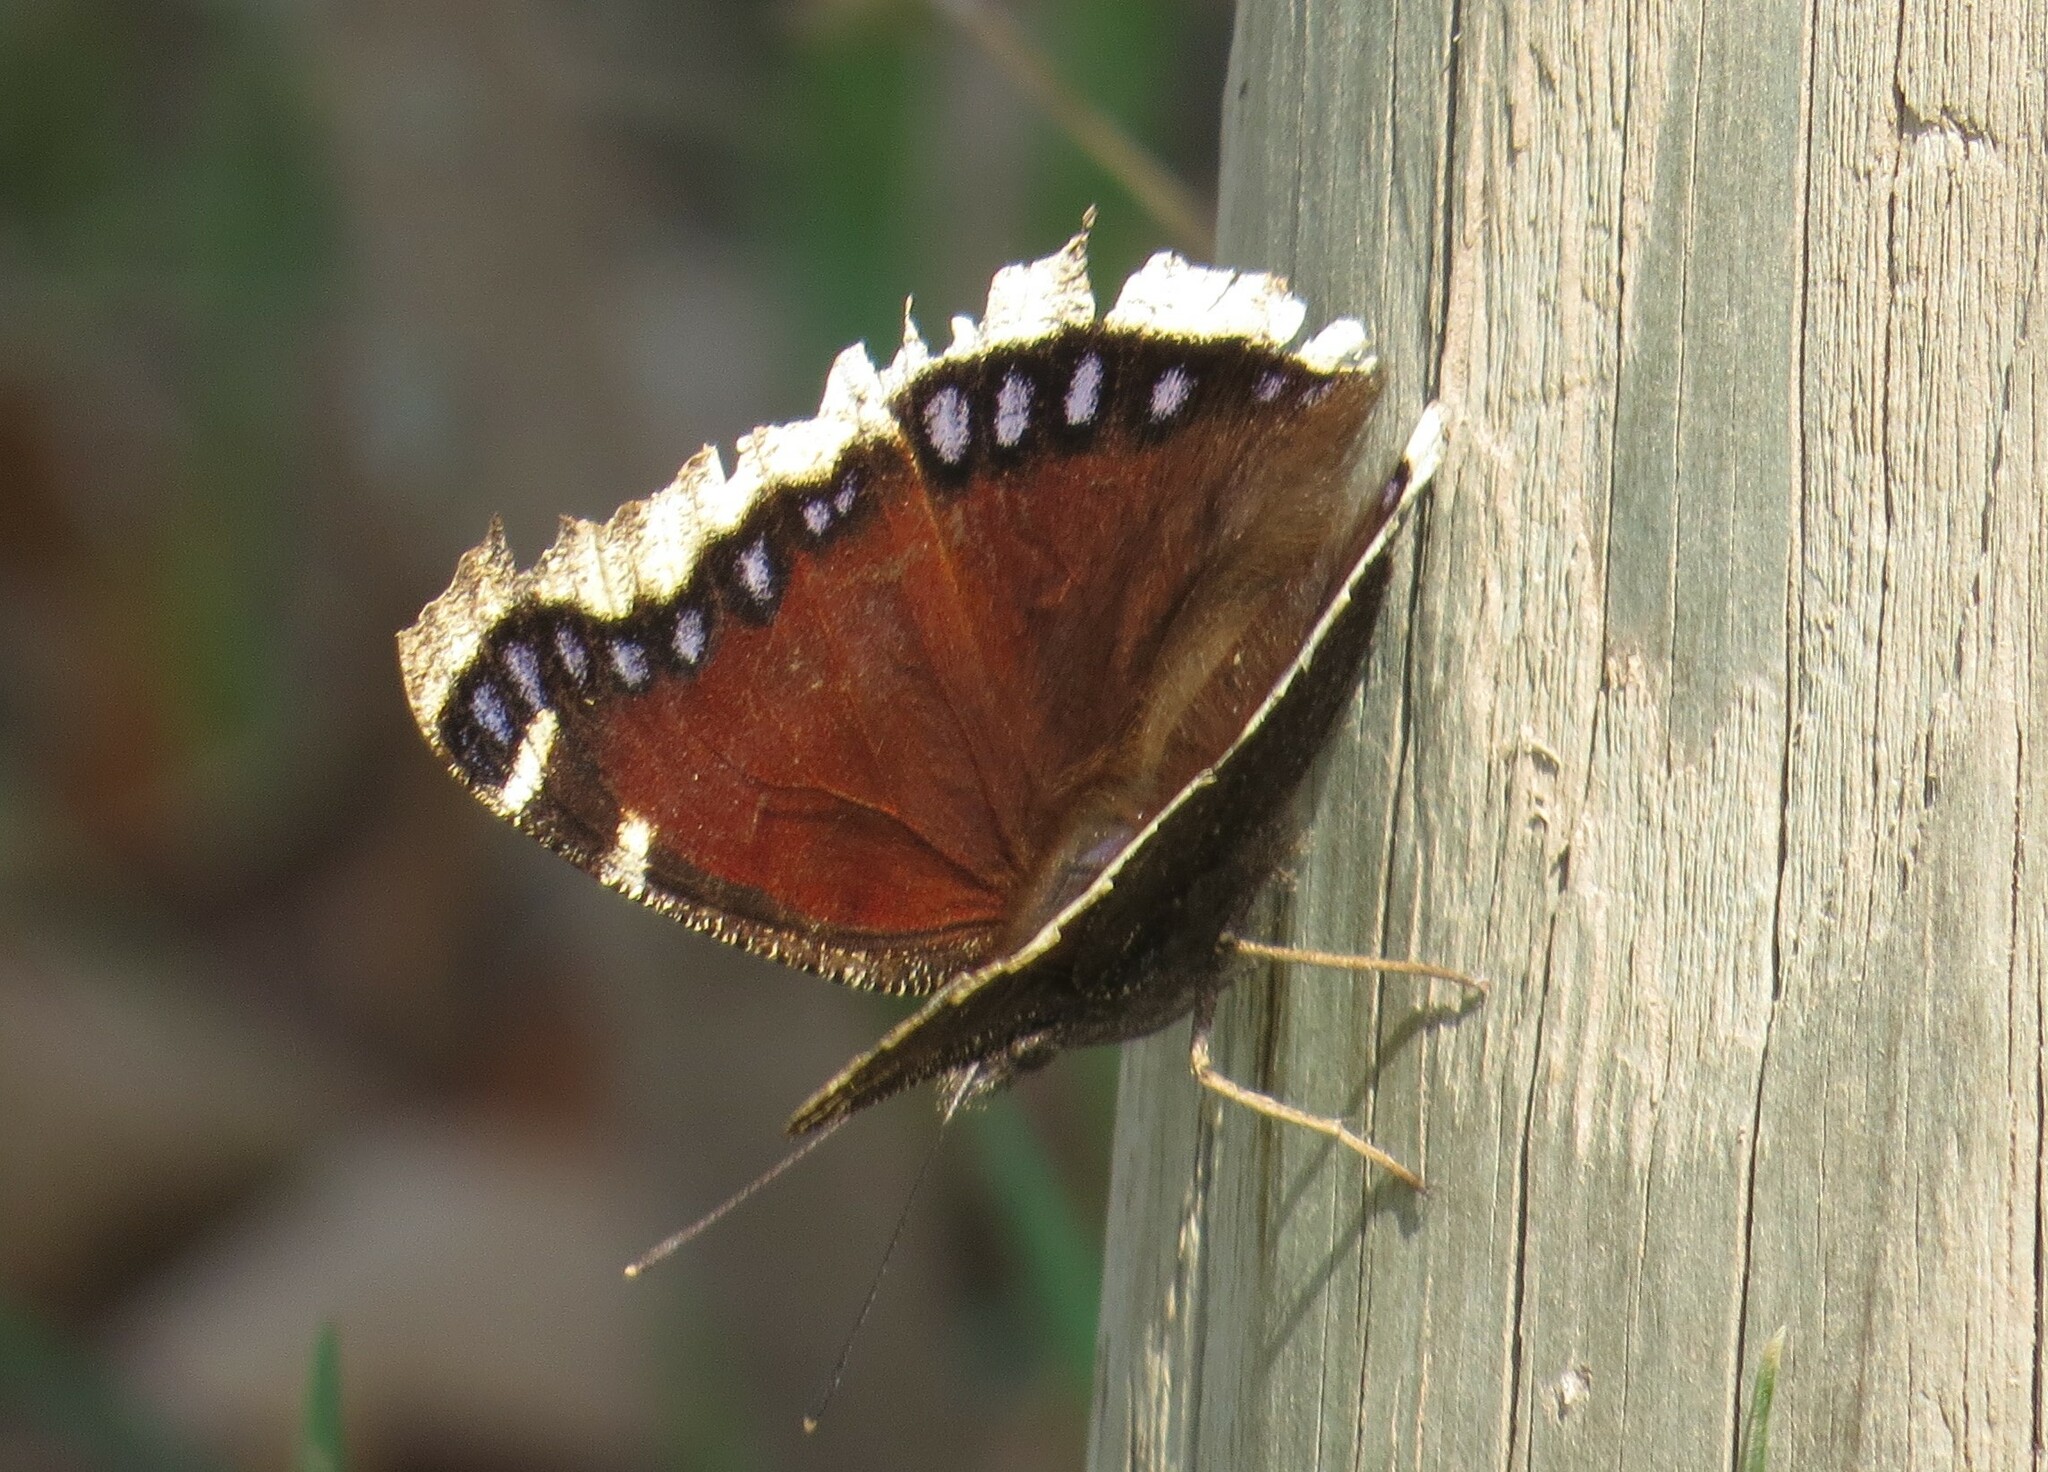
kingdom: Animalia
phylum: Arthropoda
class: Insecta
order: Lepidoptera
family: Nymphalidae
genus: Nymphalis
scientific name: Nymphalis antiopa
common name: Camberwell beauty
